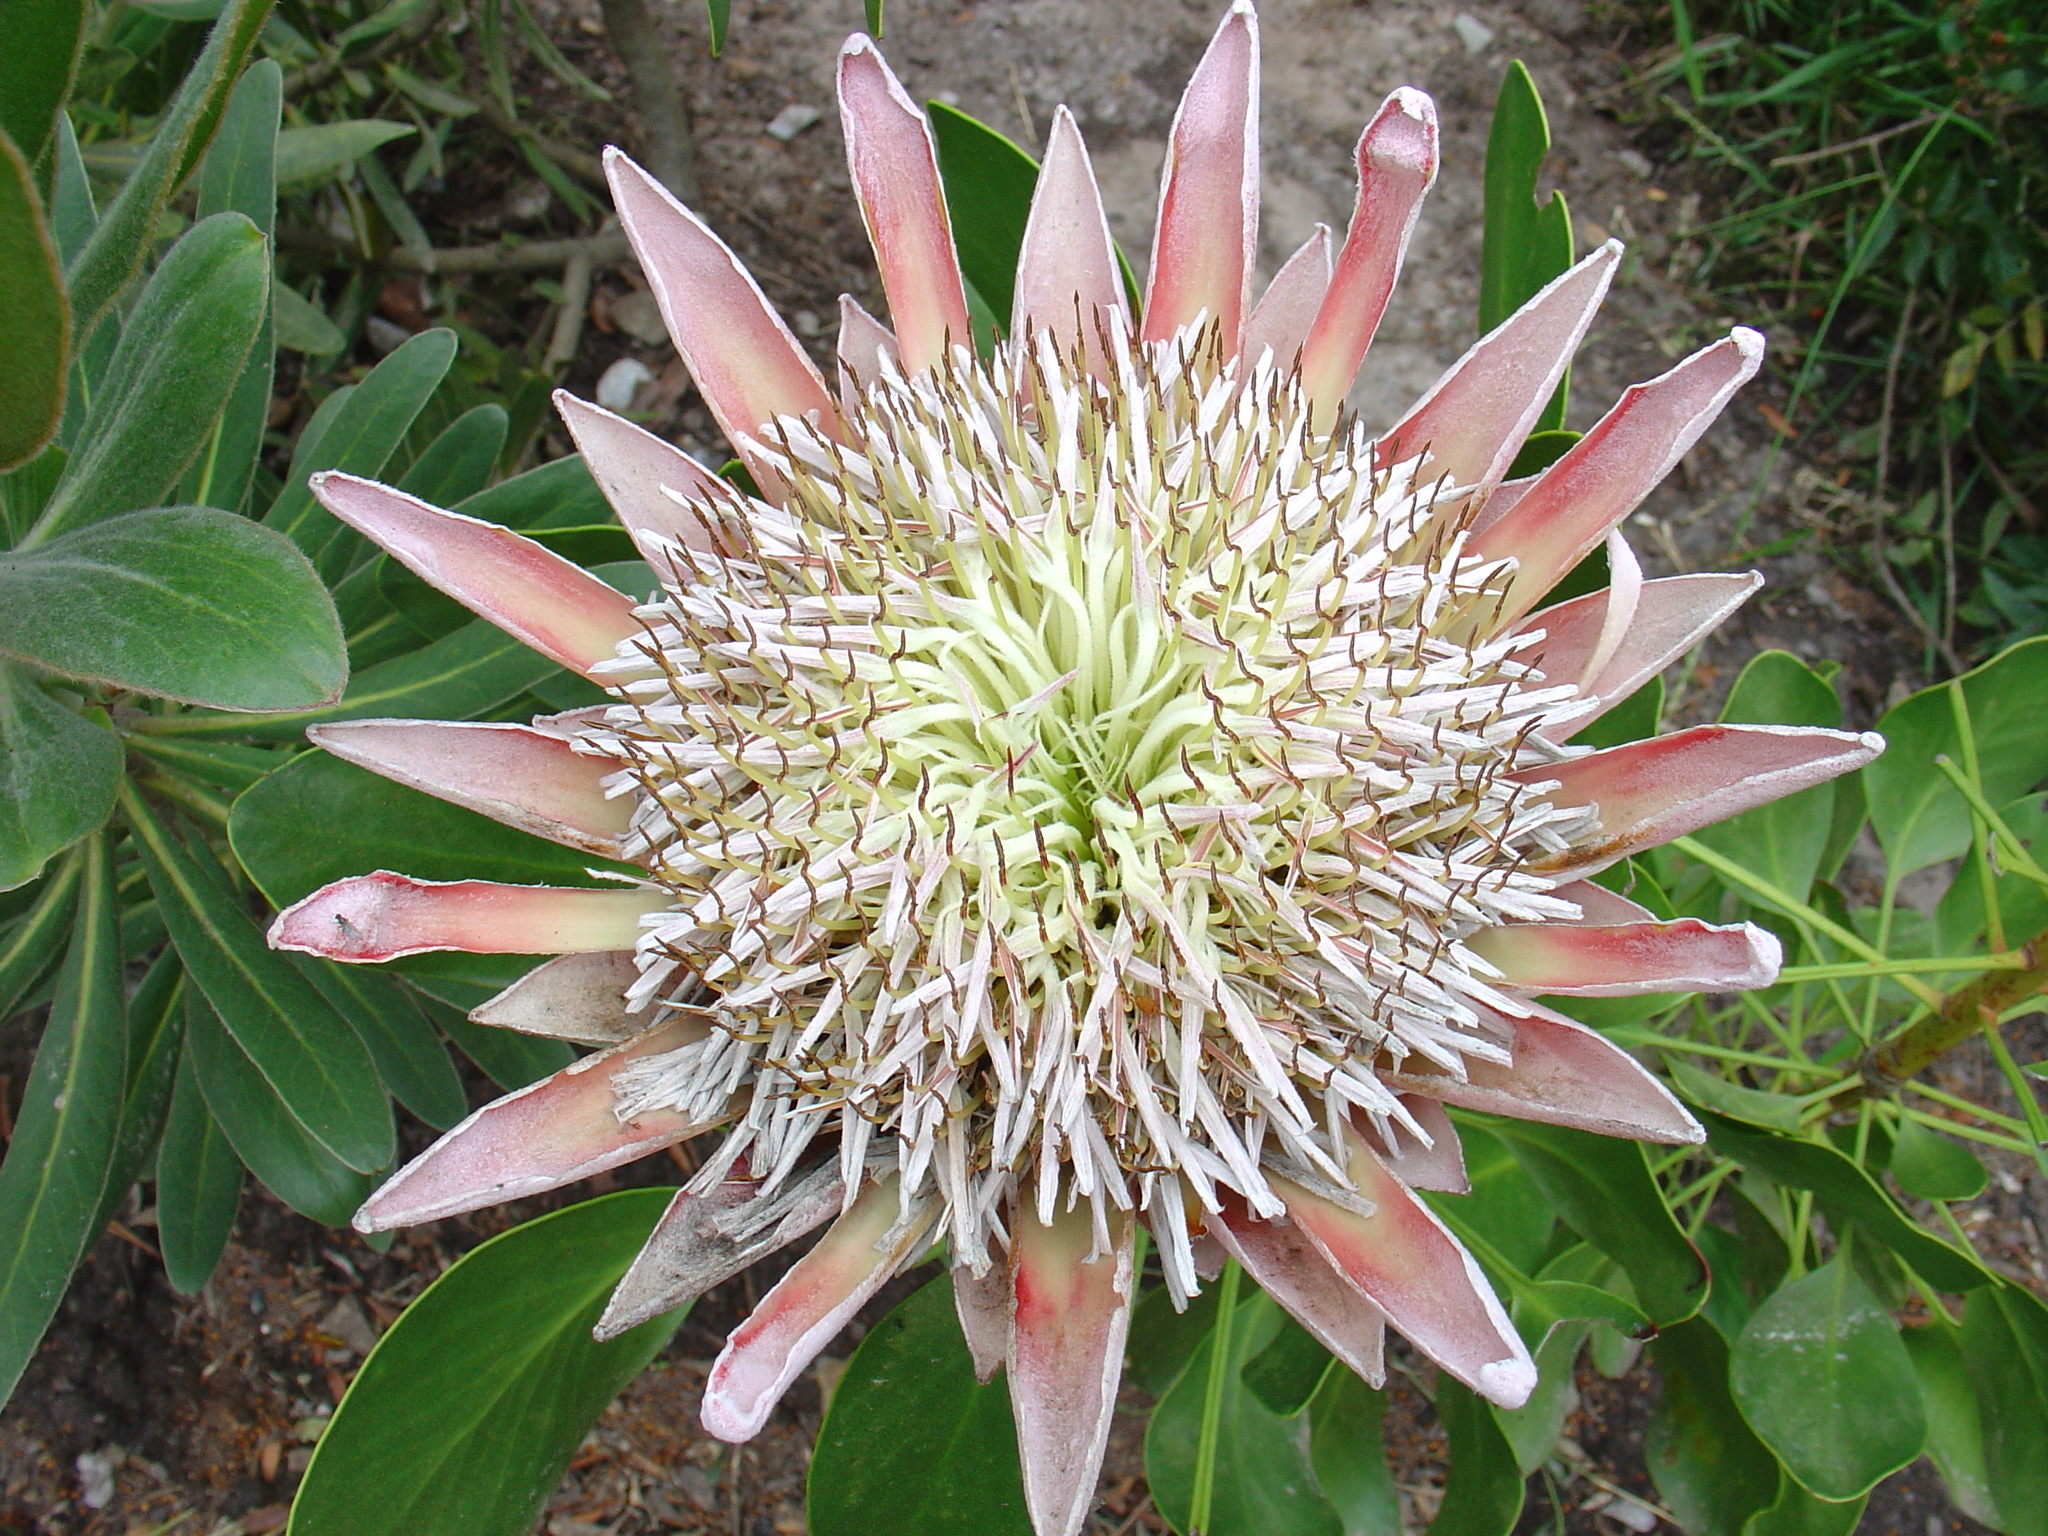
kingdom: Plantae
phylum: Tracheophyta
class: Magnoliopsida
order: Proteales
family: Proteaceae
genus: Protea
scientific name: Protea cynaroides
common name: King protea
